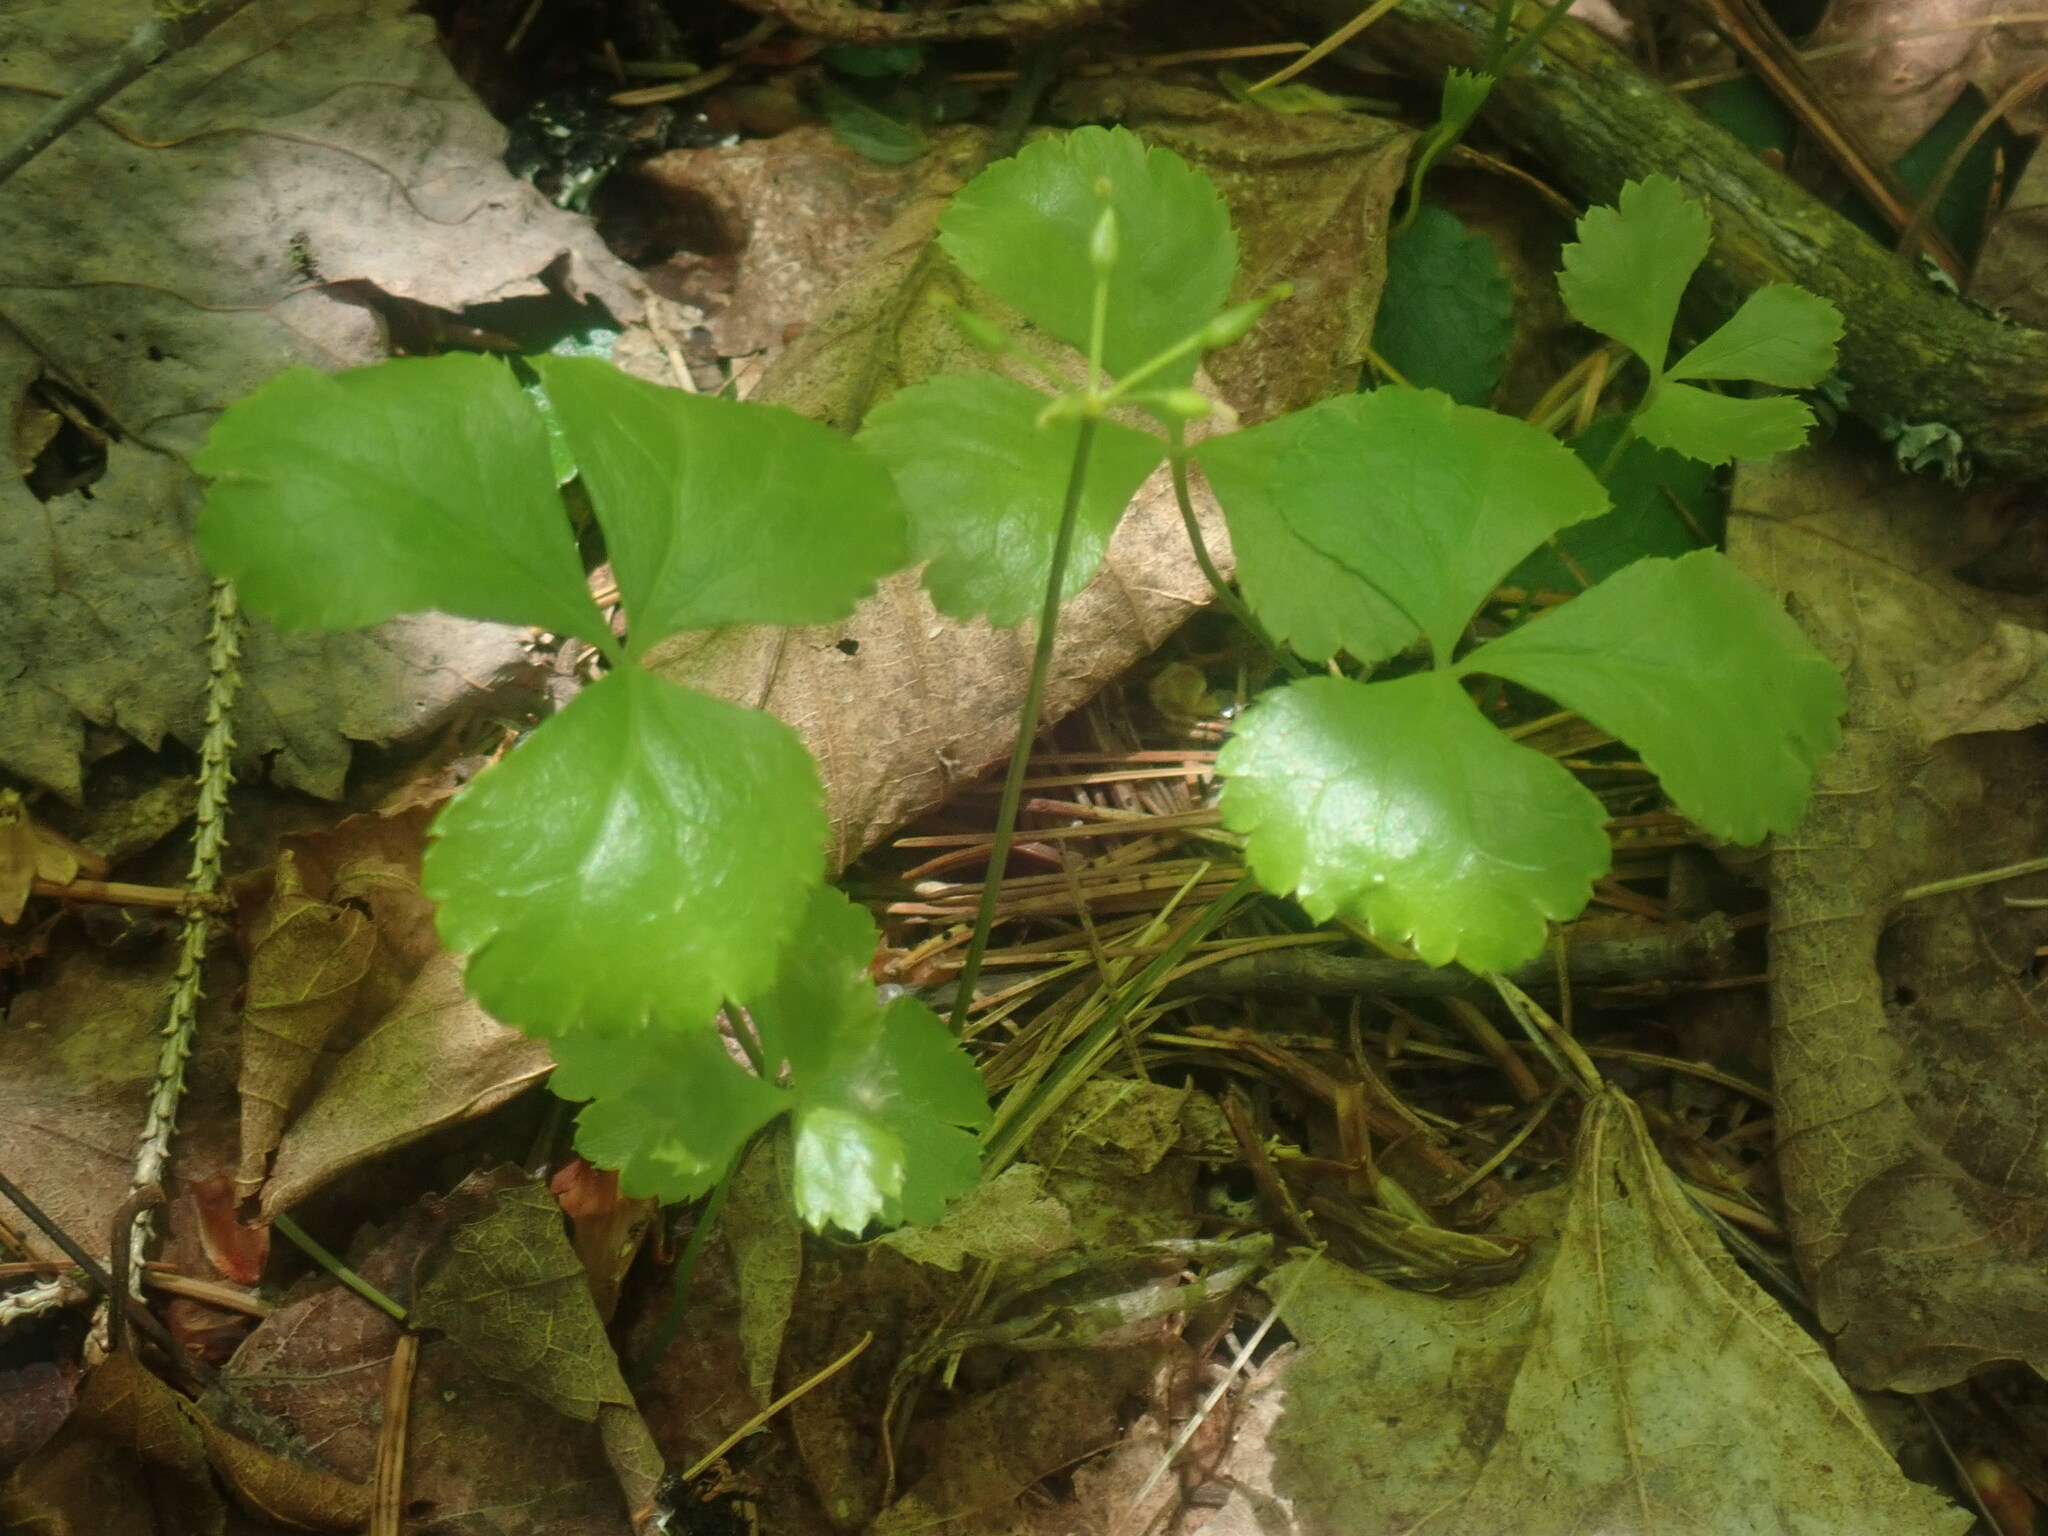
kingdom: Plantae
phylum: Tracheophyta
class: Magnoliopsida
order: Ranunculales
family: Ranunculaceae
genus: Coptis
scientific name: Coptis trifolia
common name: Canker-root
